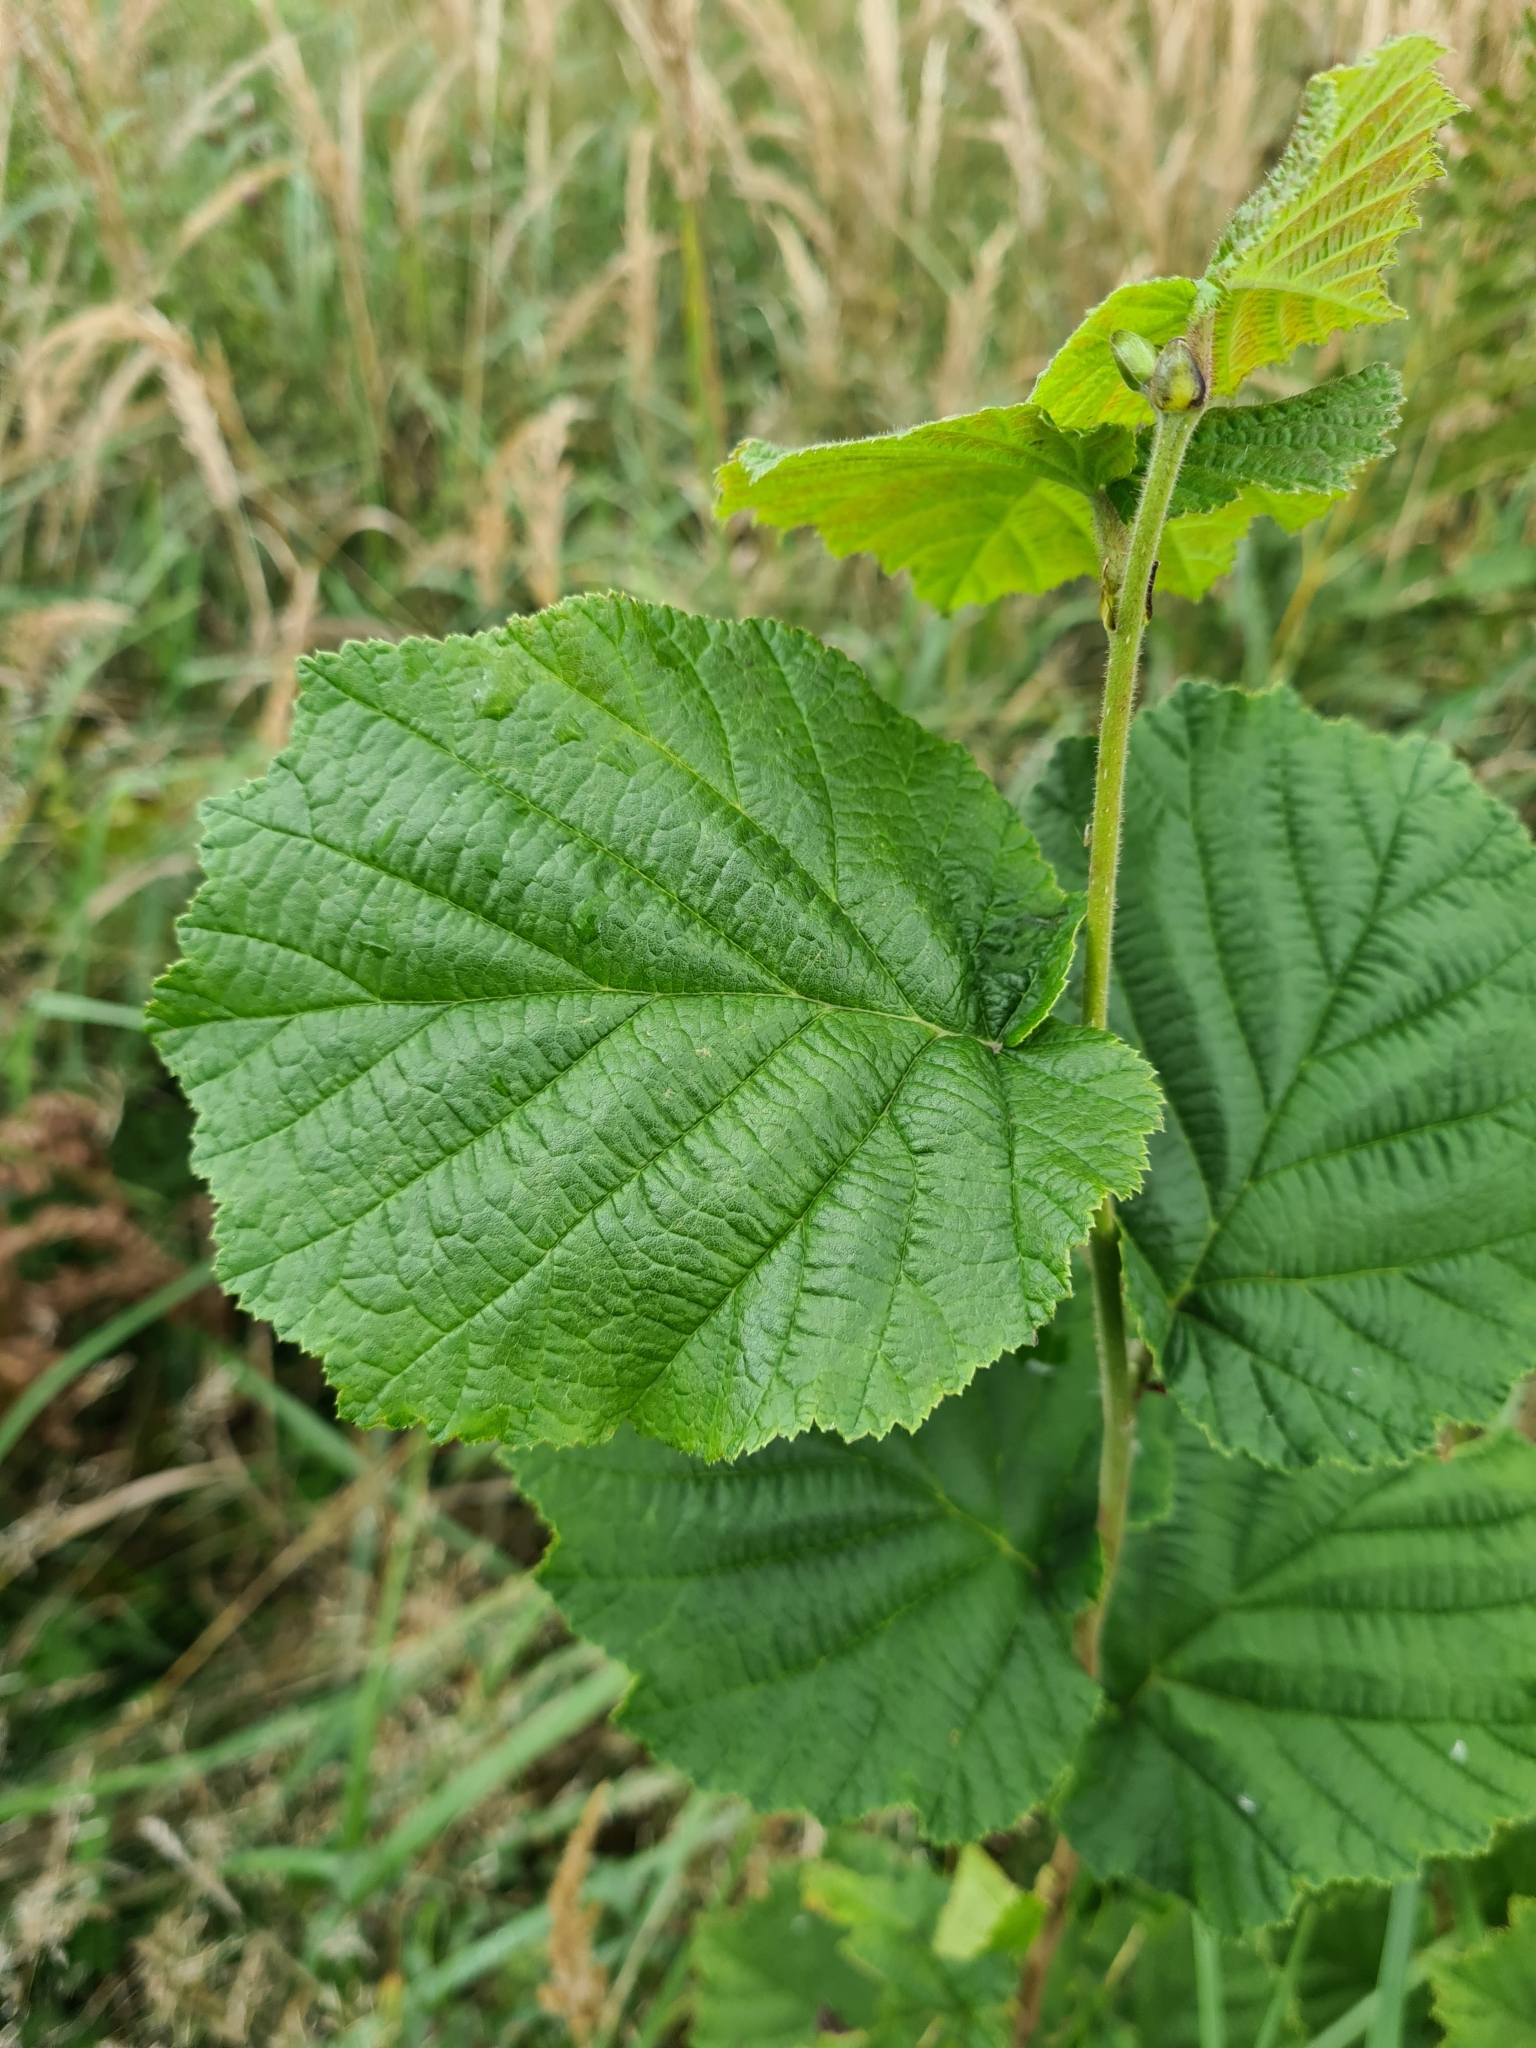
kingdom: Plantae
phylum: Tracheophyta
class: Magnoliopsida
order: Fagales
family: Betulaceae
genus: Corylus
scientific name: Corylus avellana
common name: European hazel
